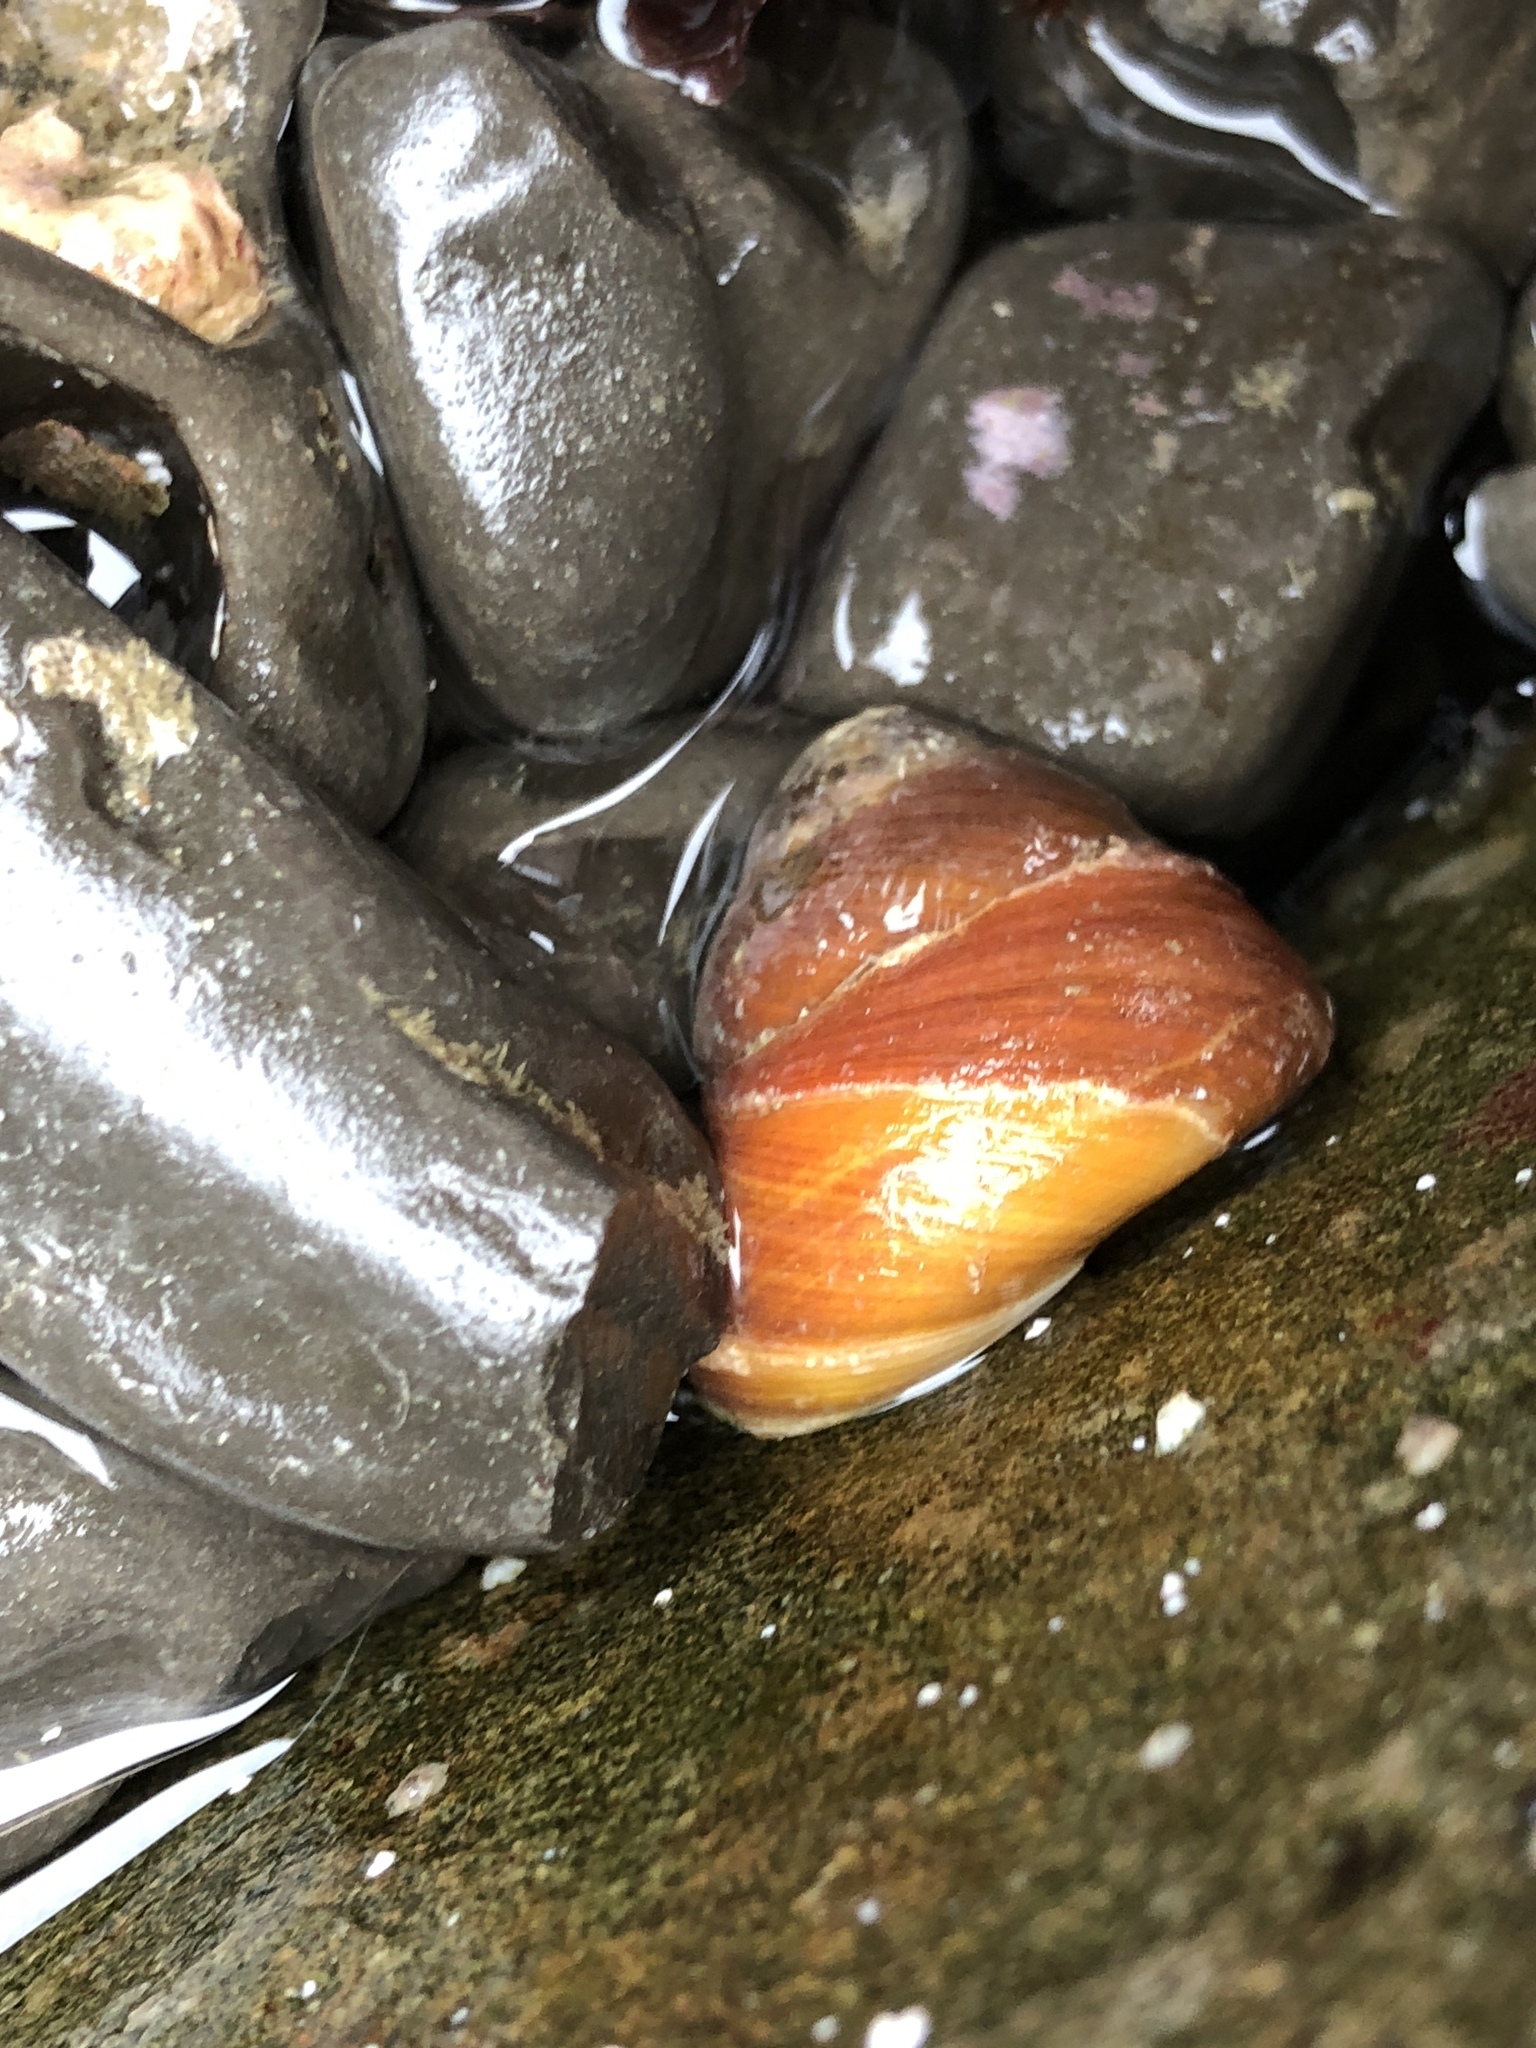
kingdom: Animalia
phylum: Mollusca
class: Gastropoda
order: Trochida
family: Tegulidae
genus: Tegula
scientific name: Tegula brunnea
